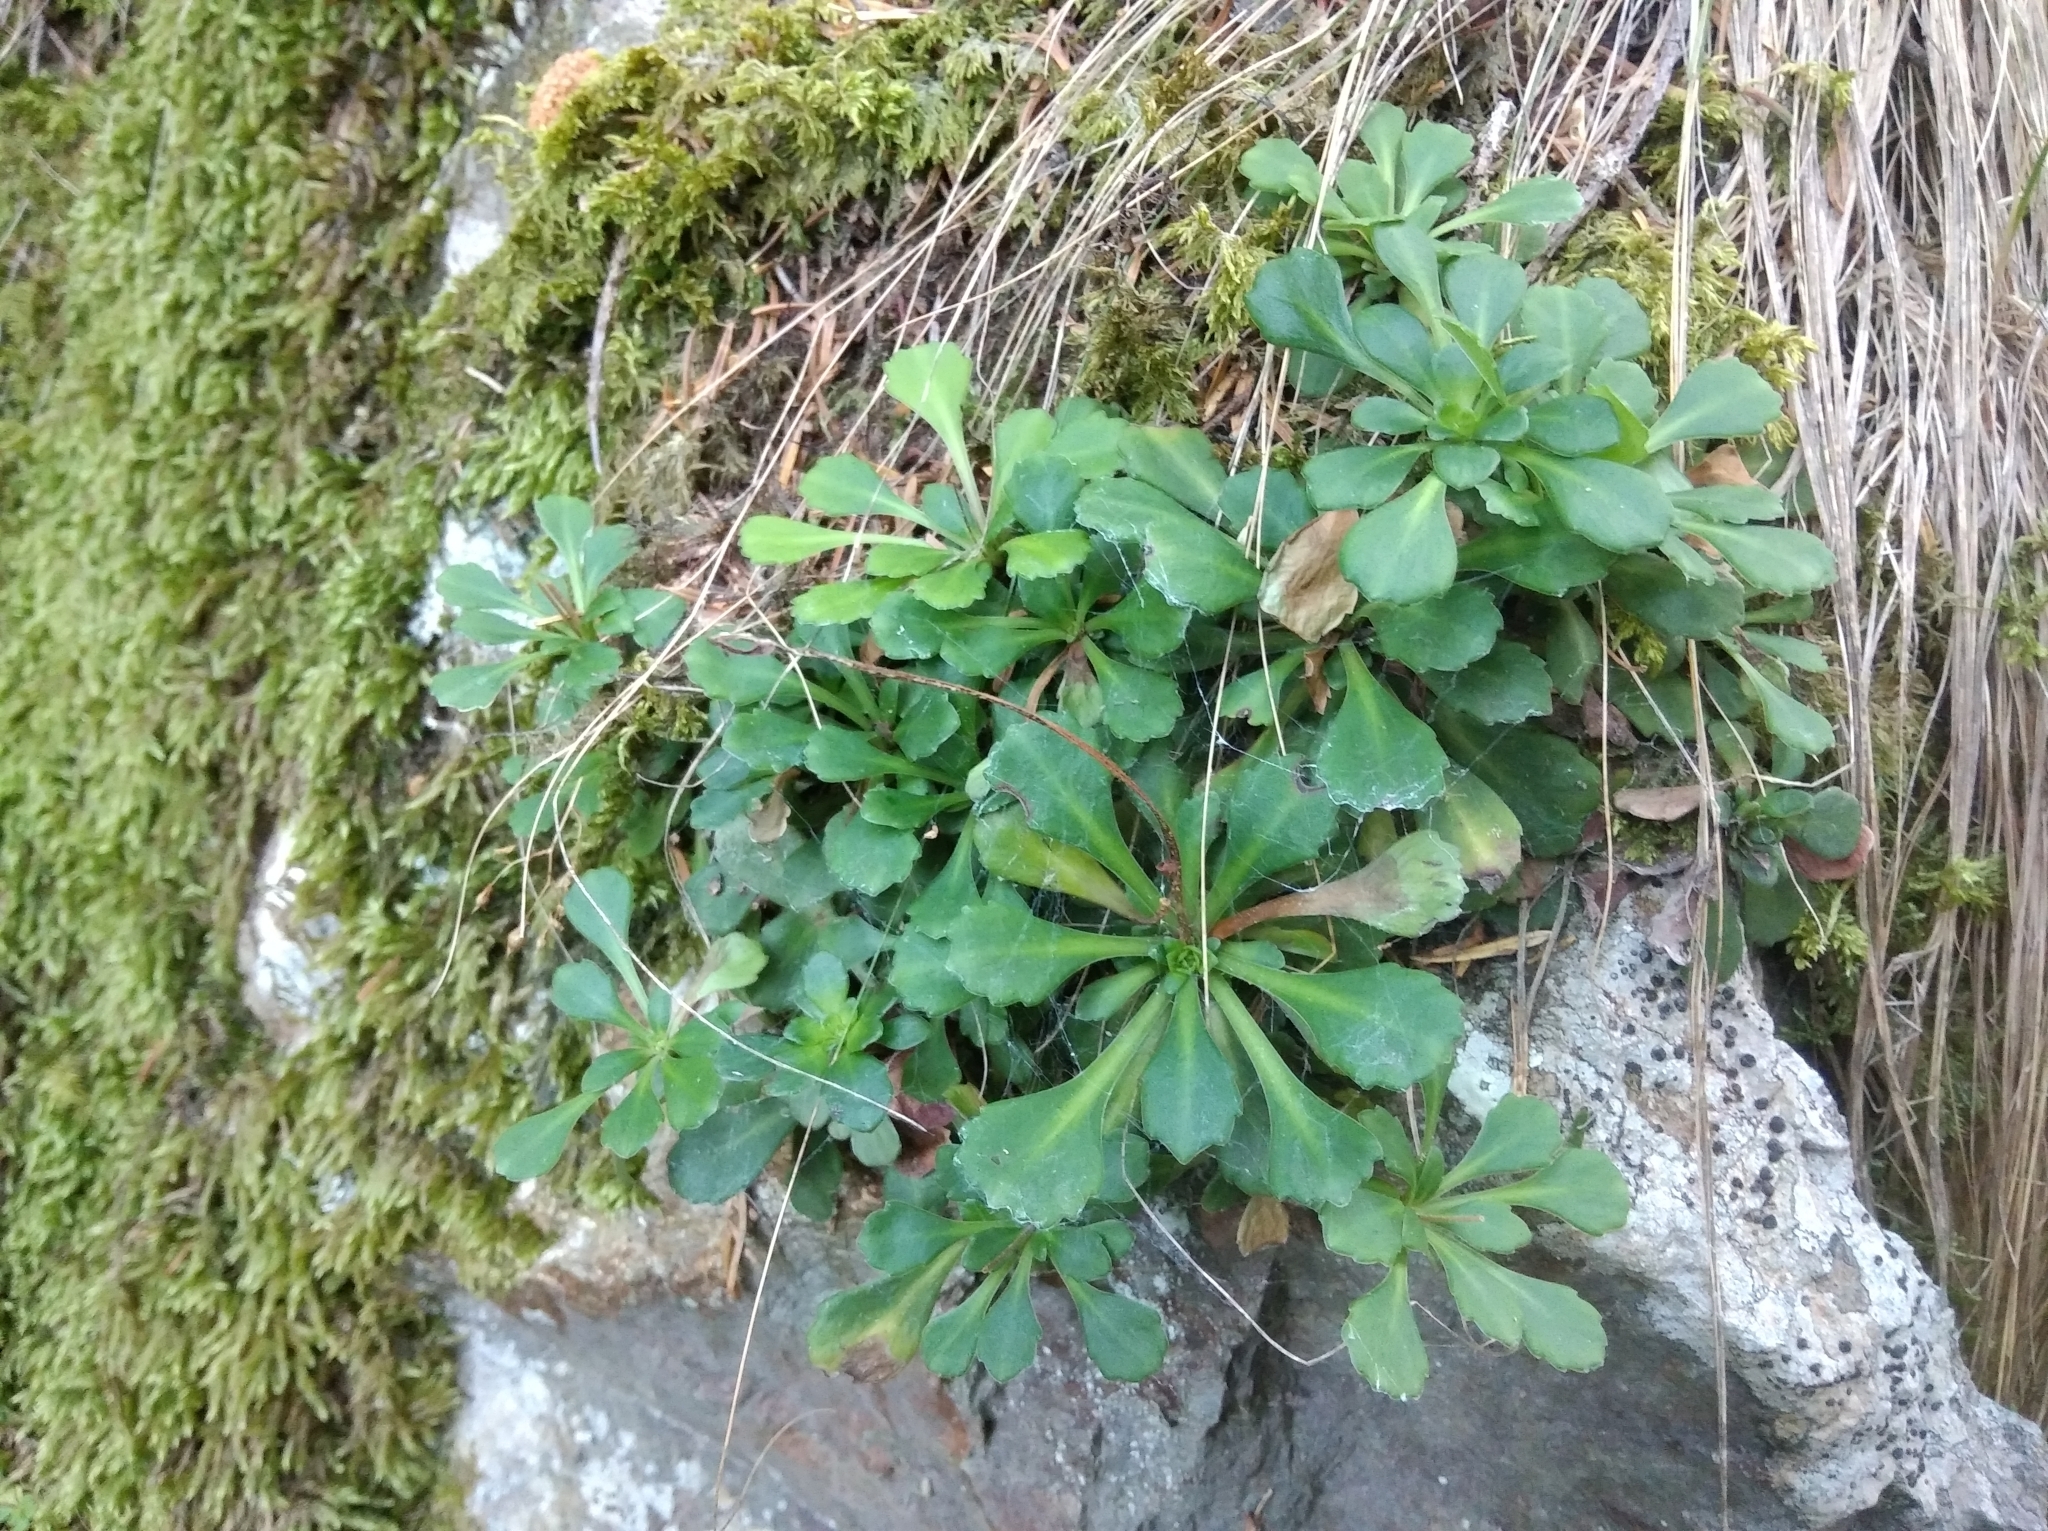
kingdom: Plantae
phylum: Tracheophyta
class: Magnoliopsida
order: Saxifragales
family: Saxifragaceae
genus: Saxifraga
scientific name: Saxifraga cuneifolia
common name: Lesser londonpride
